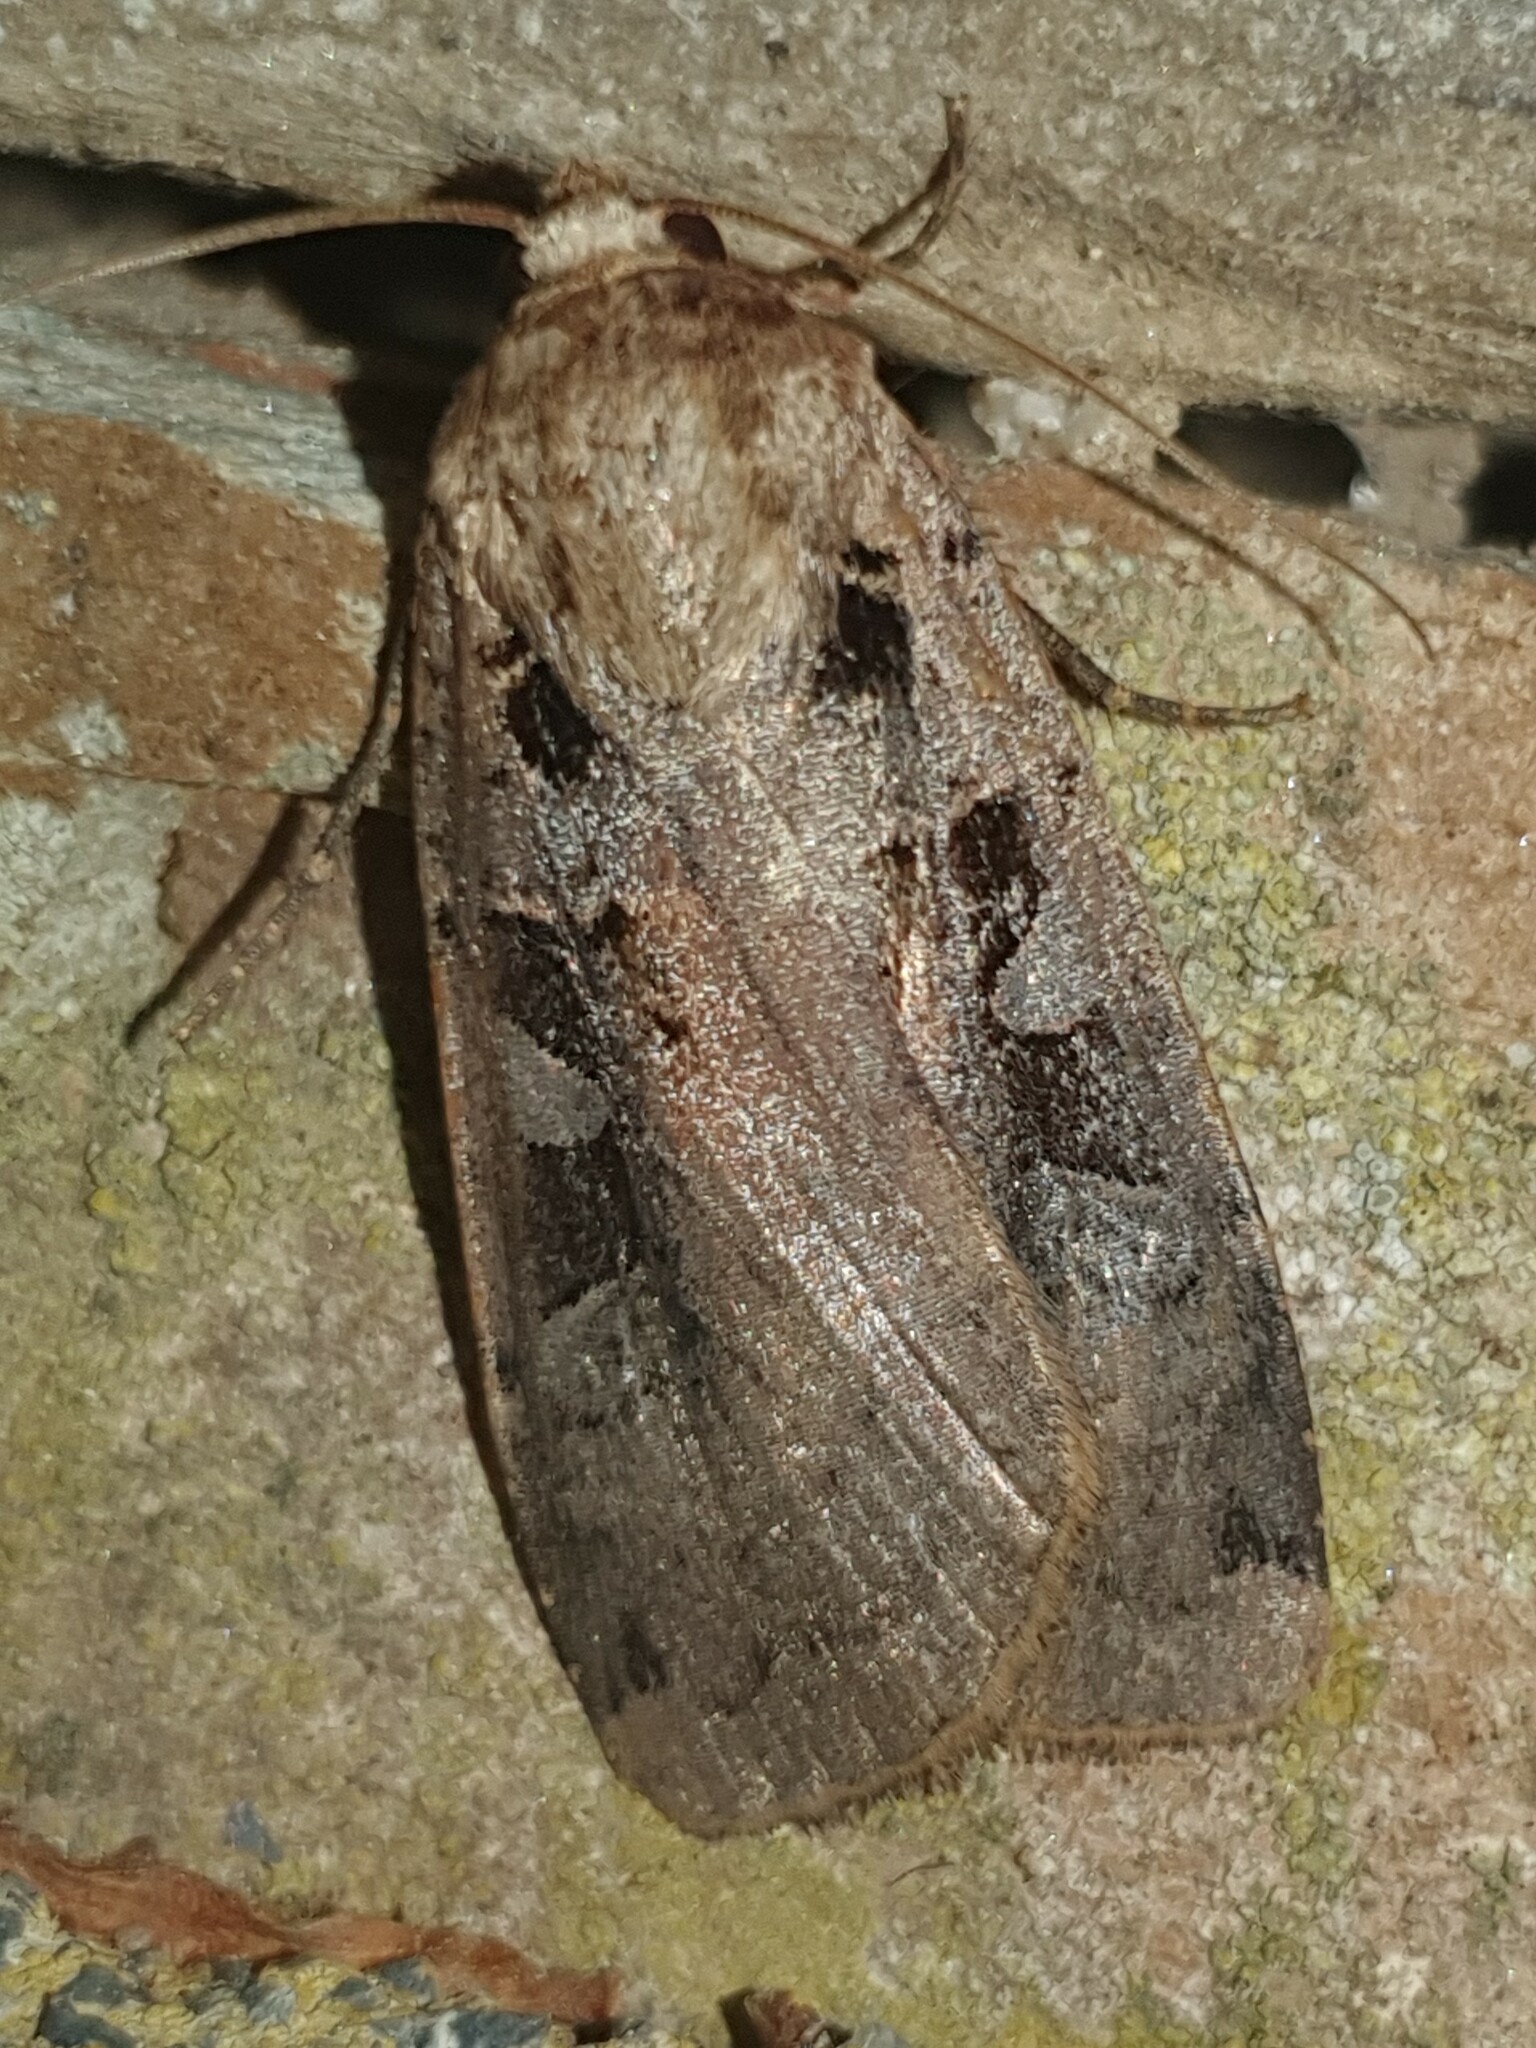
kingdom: Animalia
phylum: Arthropoda
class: Insecta
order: Lepidoptera
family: Noctuidae
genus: Xestia
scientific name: Xestia ditrapezium
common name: Triple-spotted clay
